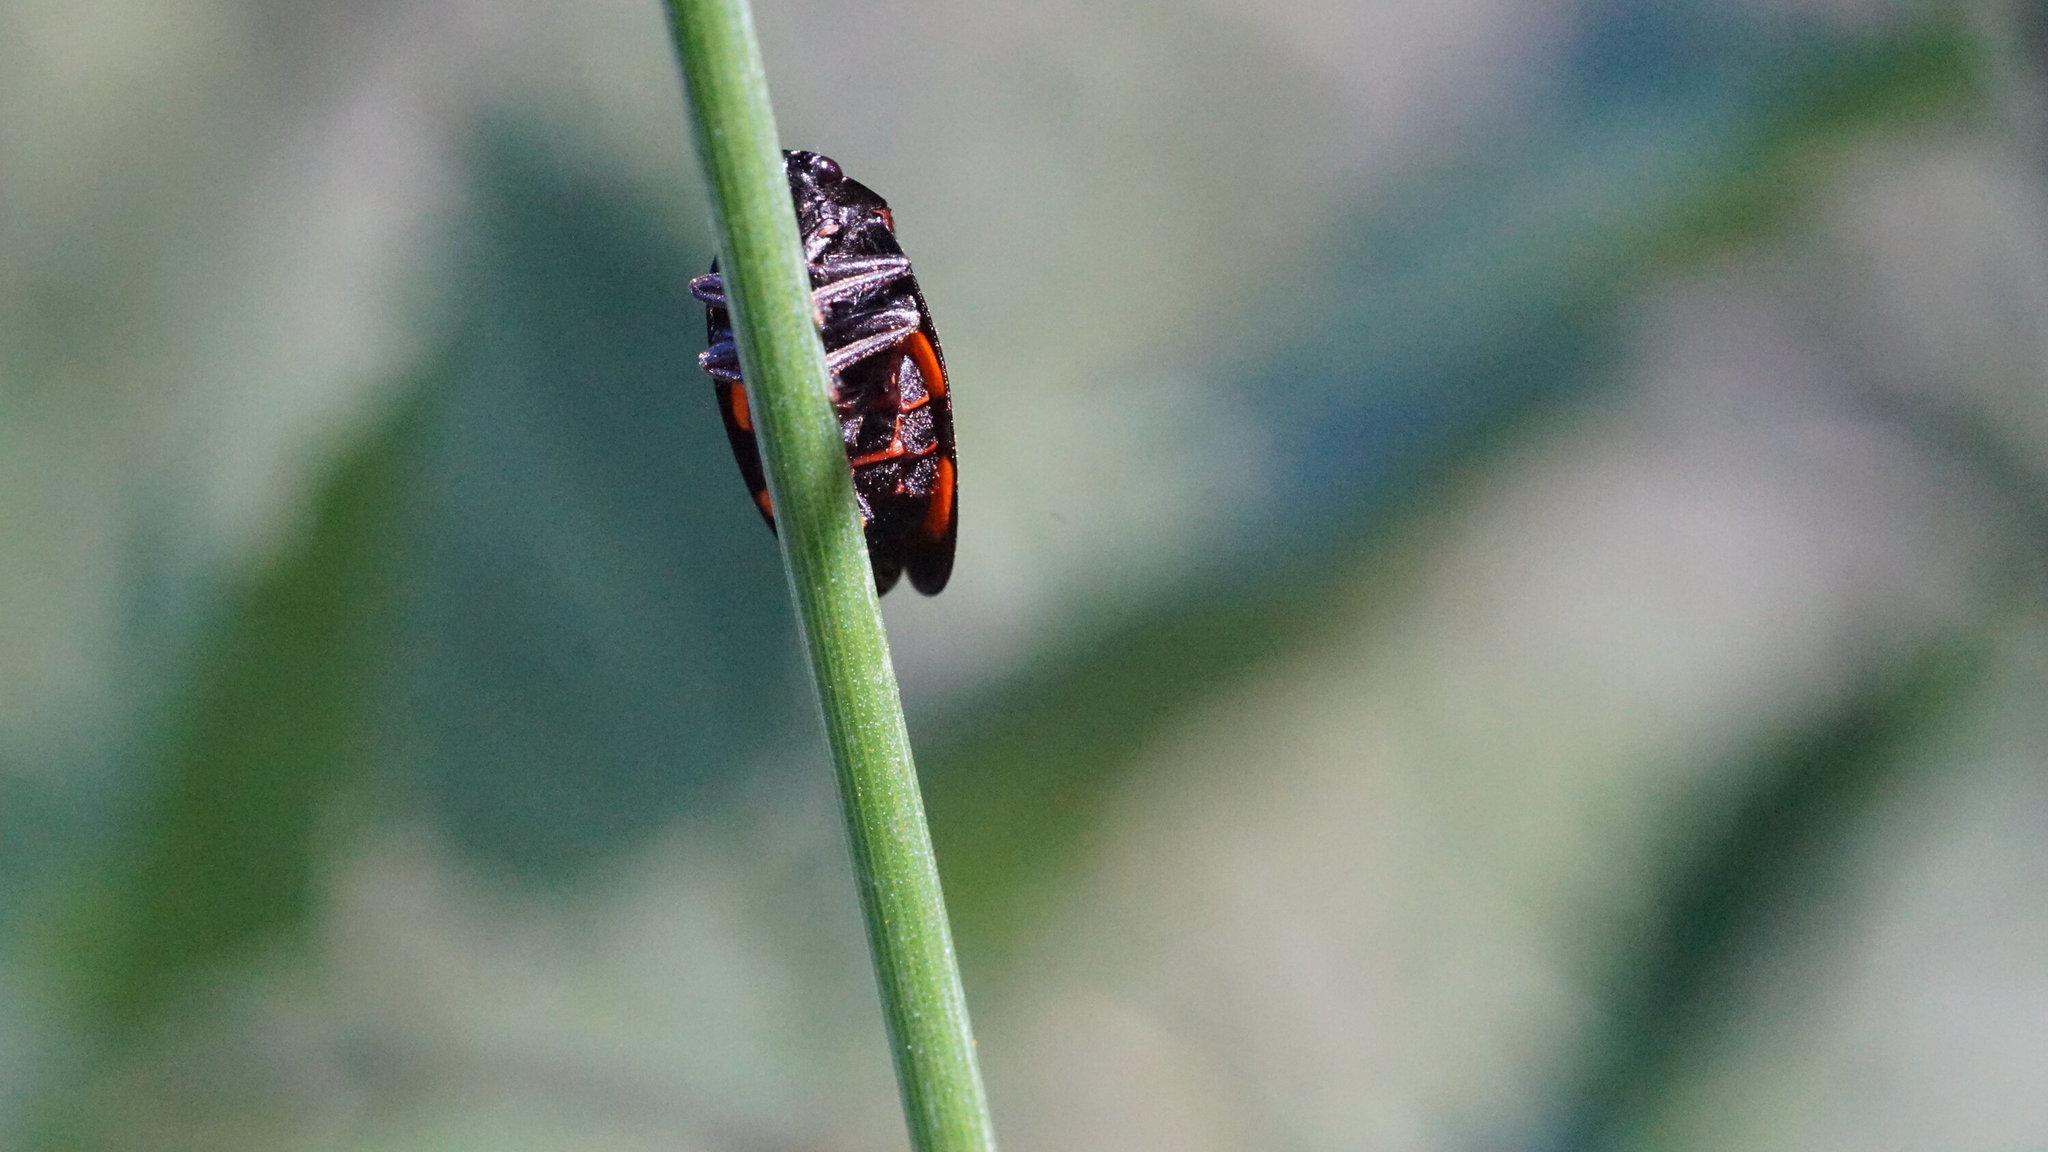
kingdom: Animalia
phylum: Arthropoda
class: Insecta
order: Hemiptera
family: Cercopidae
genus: Cercopis
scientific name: Cercopis vulnerata
